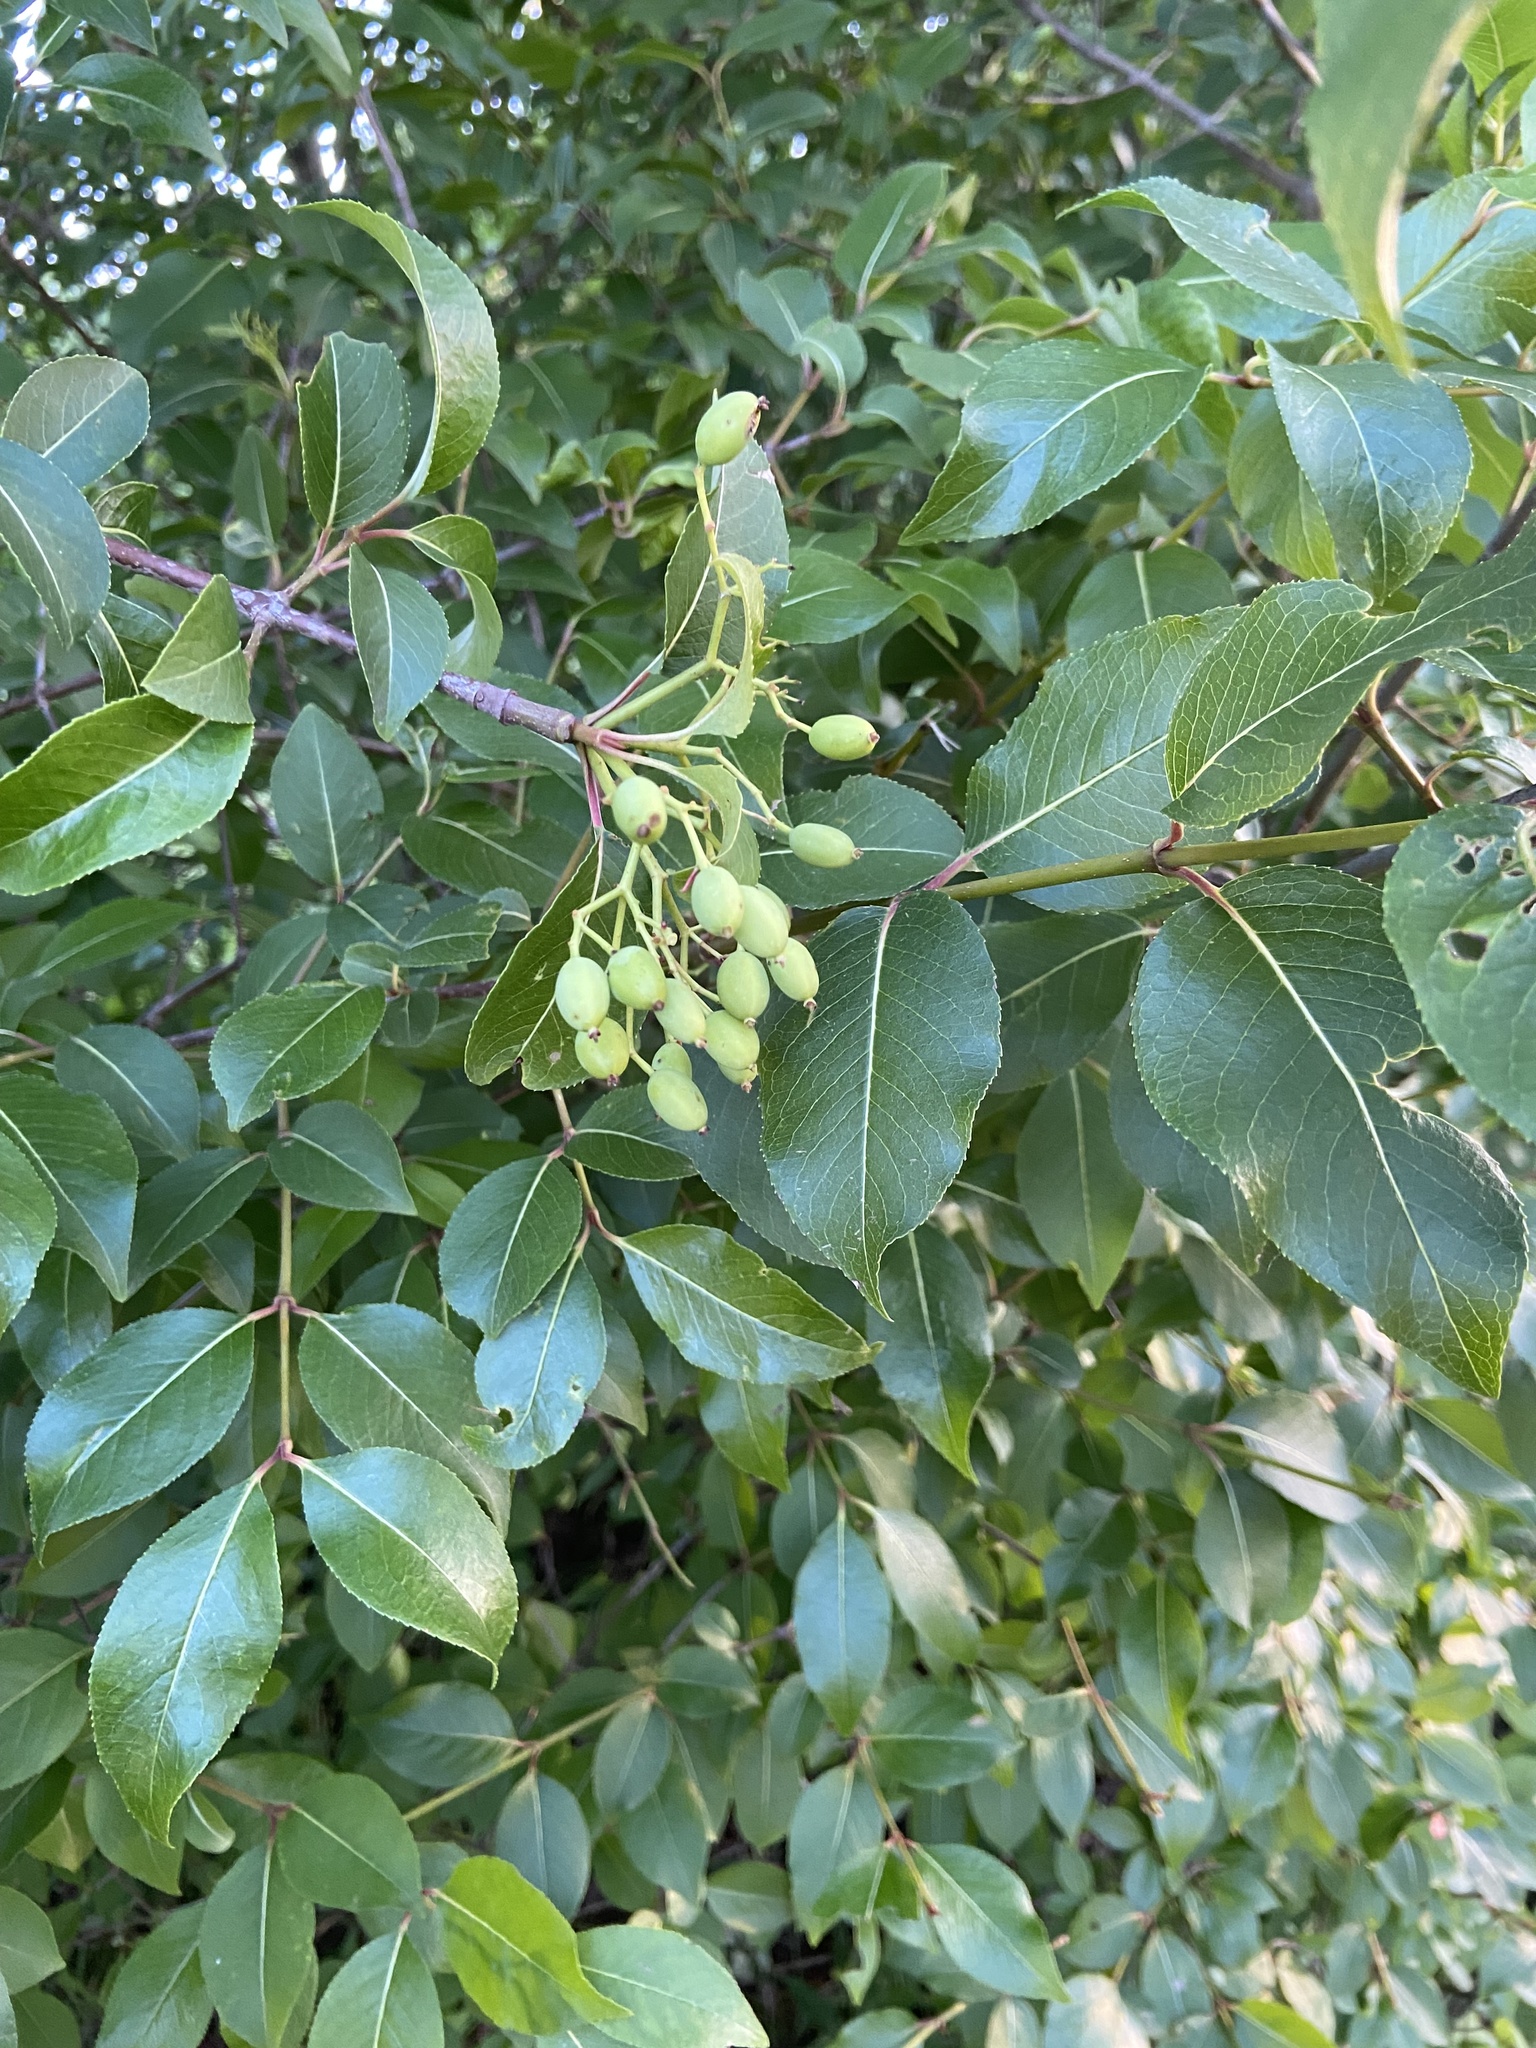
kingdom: Plantae
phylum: Tracheophyta
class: Magnoliopsida
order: Dipsacales
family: Viburnaceae
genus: Viburnum
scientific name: Viburnum prunifolium
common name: Black haw
